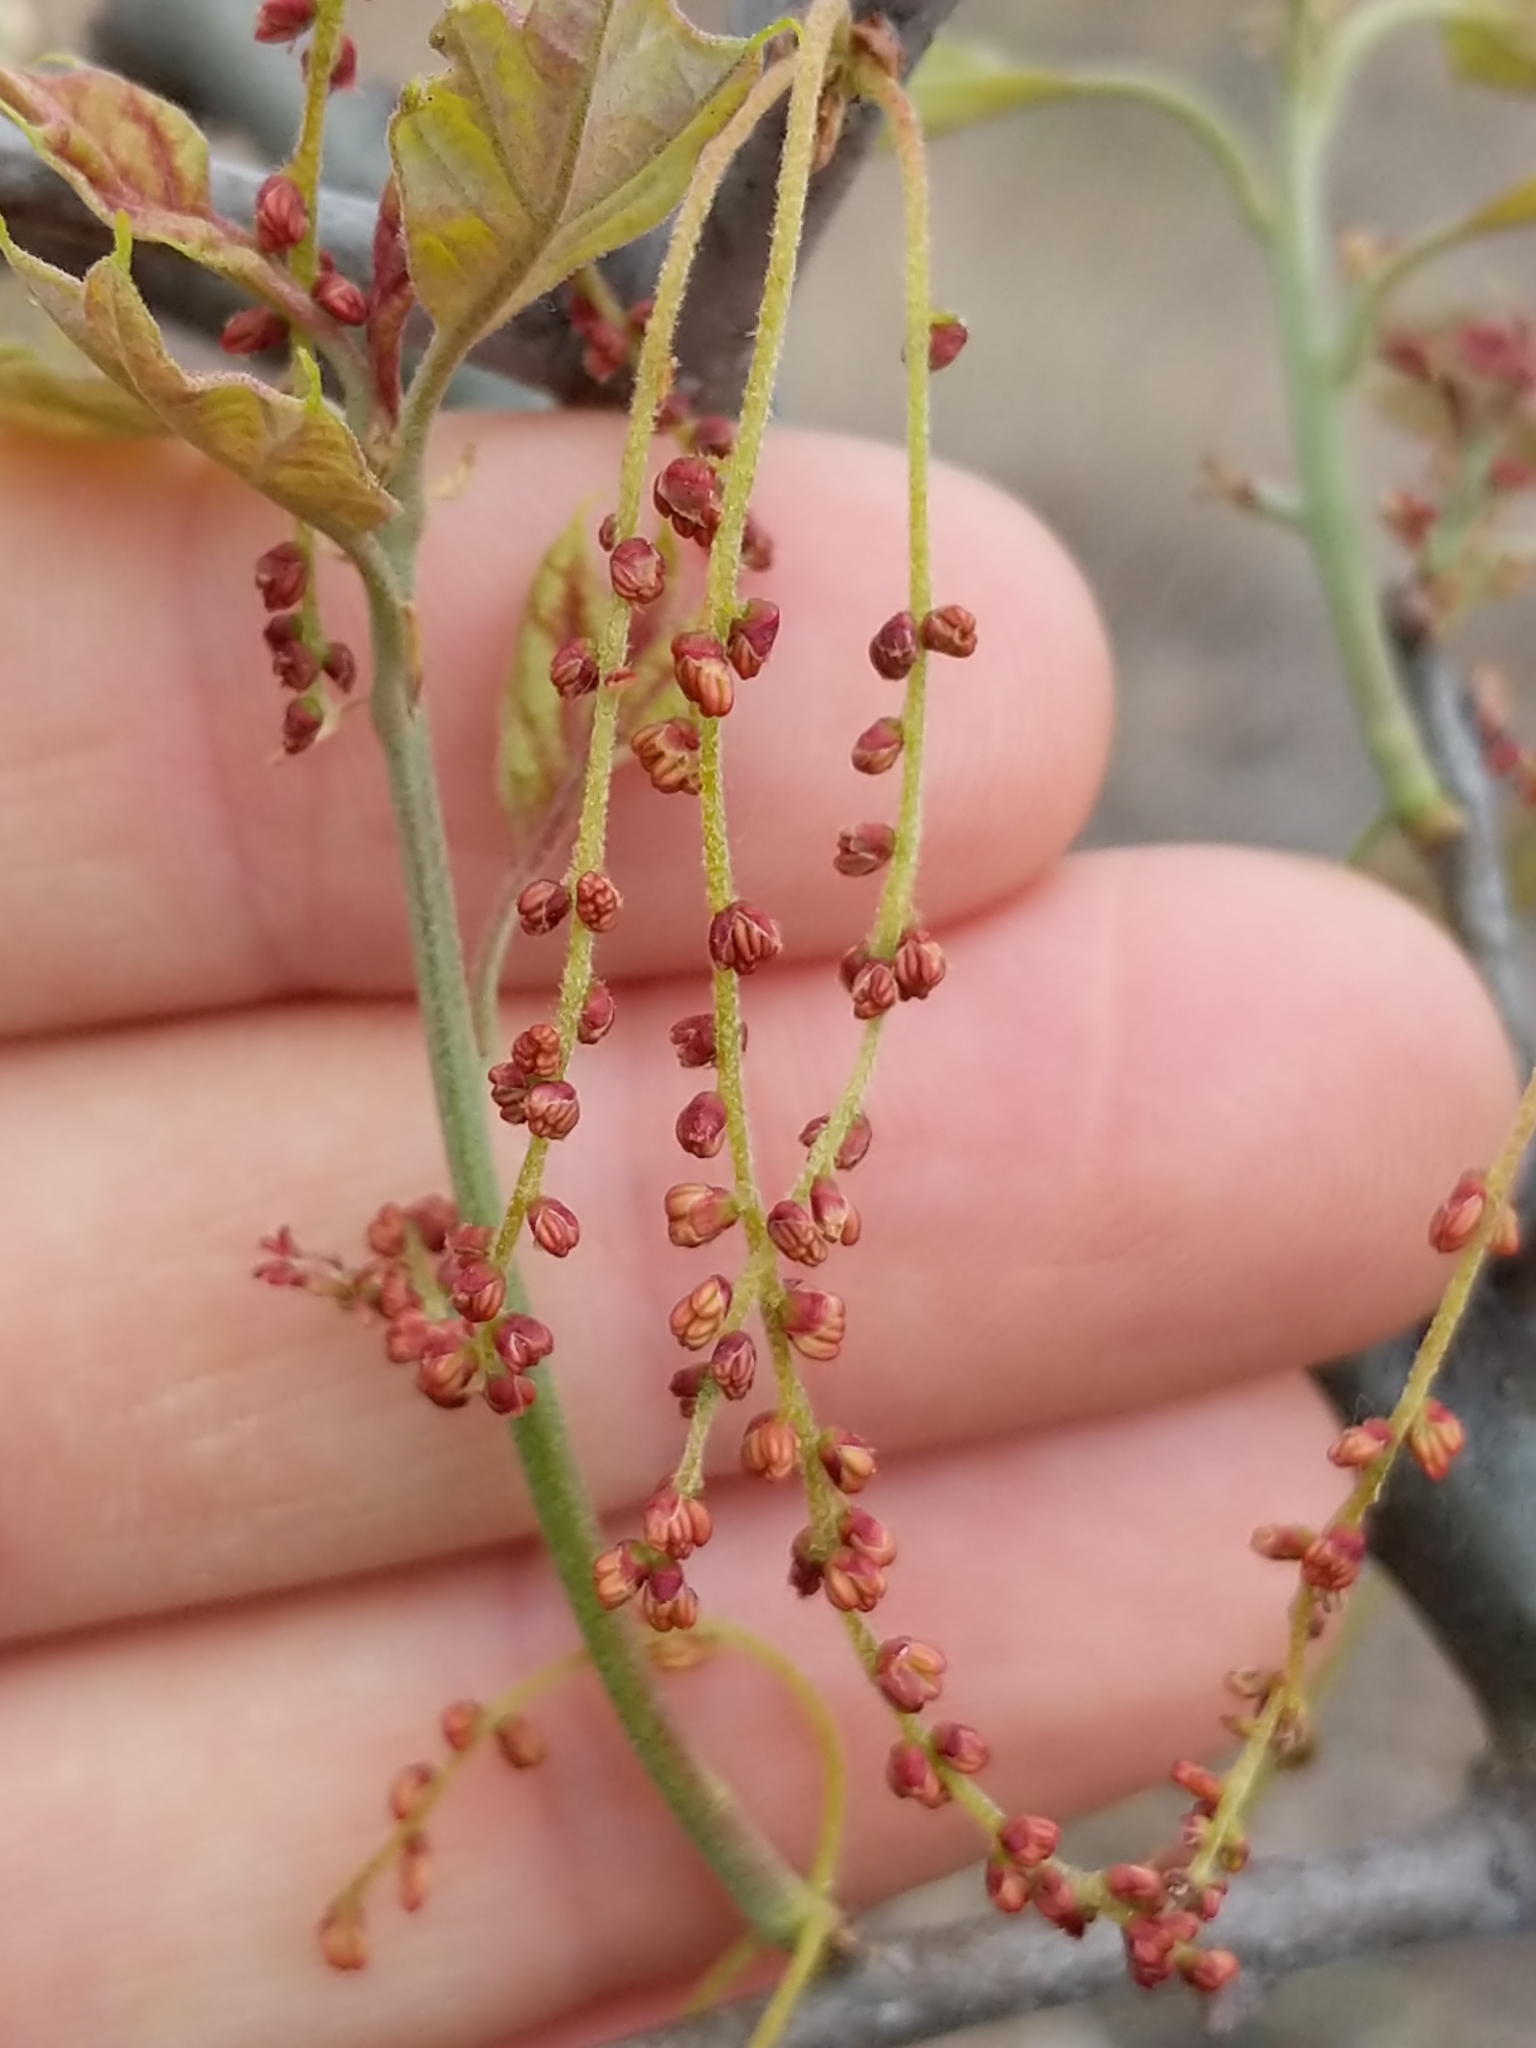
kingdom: Plantae
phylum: Tracheophyta
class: Magnoliopsida
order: Fagales
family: Fagaceae
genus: Quercus
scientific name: Quercus ilicifolia
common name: Bear oak
